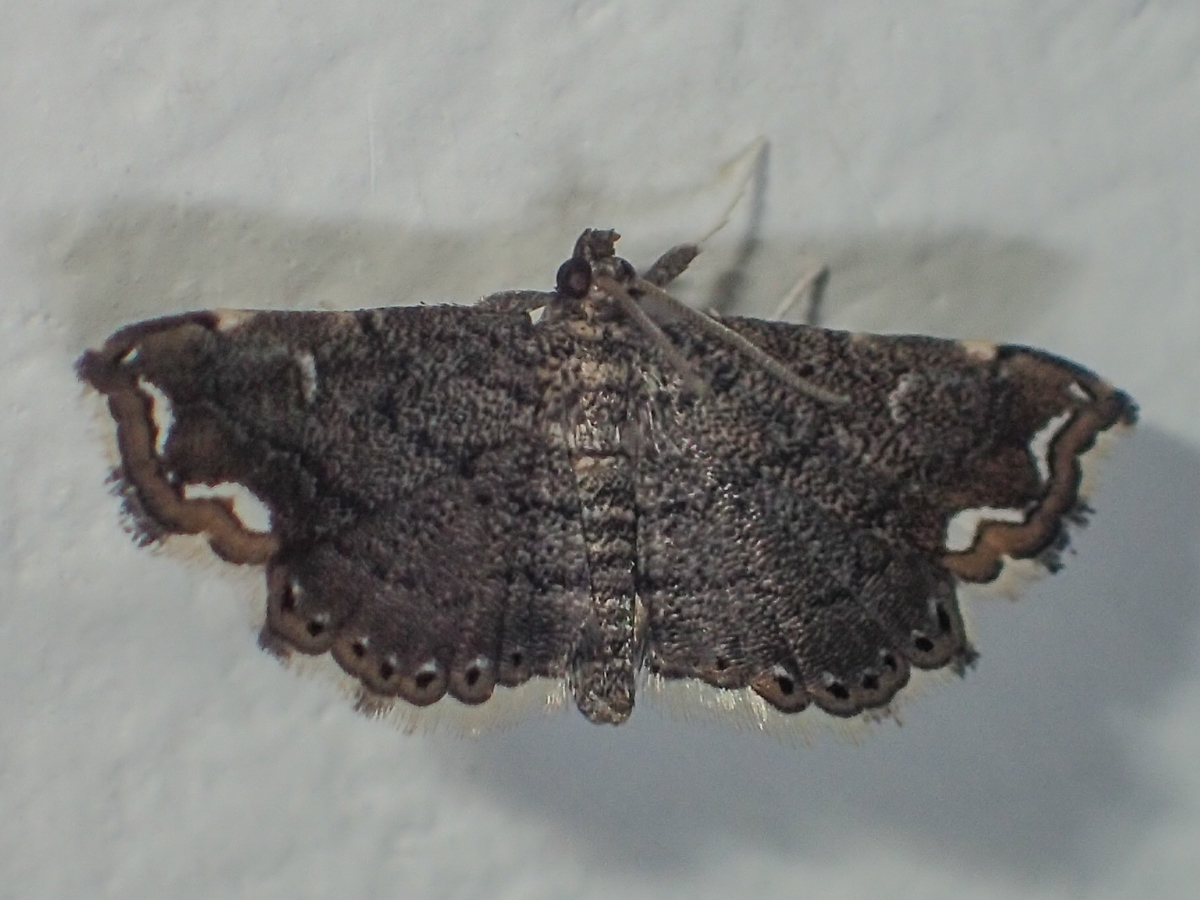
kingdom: Animalia
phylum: Arthropoda
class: Insecta
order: Lepidoptera
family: Pyralidae
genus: Neomusotima
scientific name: Neomusotima conspurcatalis
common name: Lygodium defoliator moth
